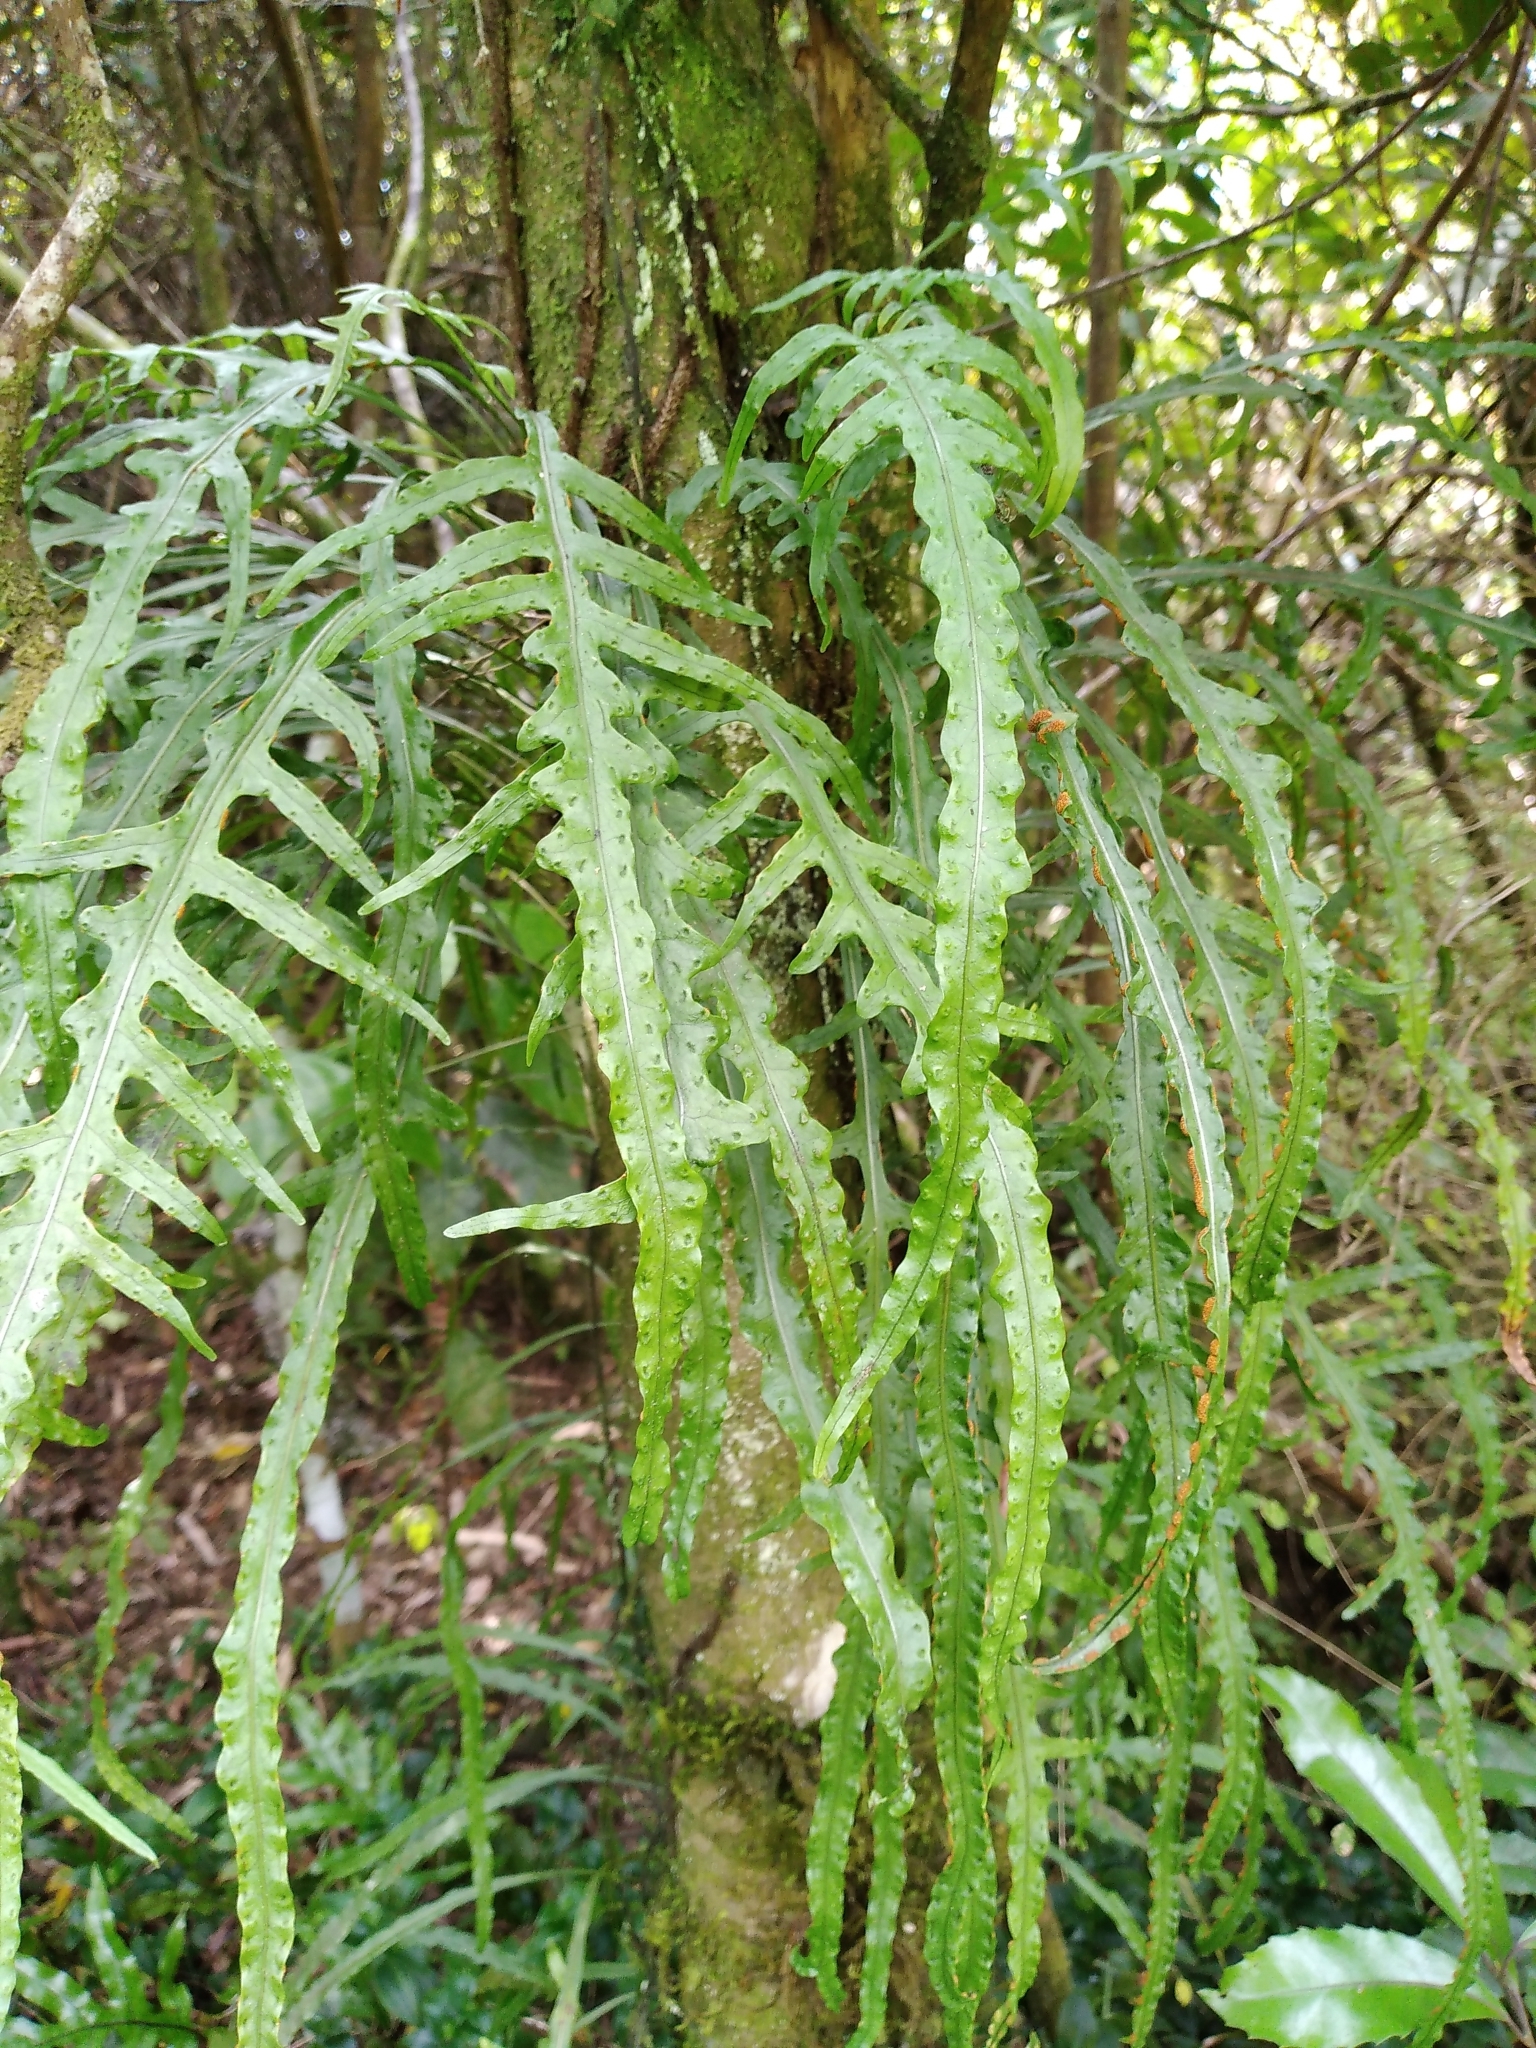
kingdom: Plantae
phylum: Tracheophyta
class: Polypodiopsida
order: Polypodiales
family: Polypodiaceae
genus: Lecanopteris
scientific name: Lecanopteris scandens
